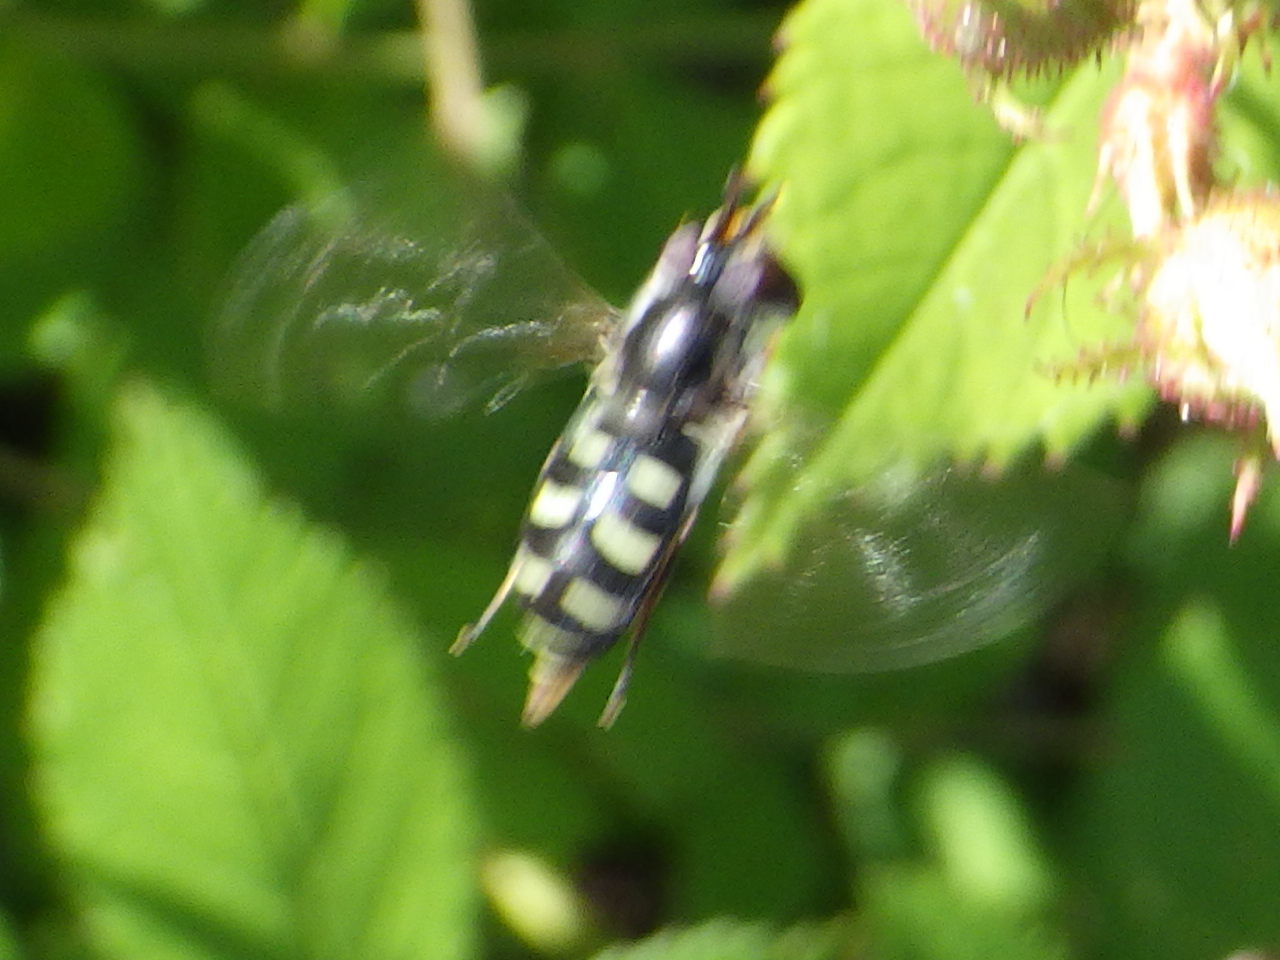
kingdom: Animalia
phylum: Arthropoda
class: Insecta
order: Diptera
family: Syrphidae
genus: Eupeodes
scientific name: Eupeodes perplexus
